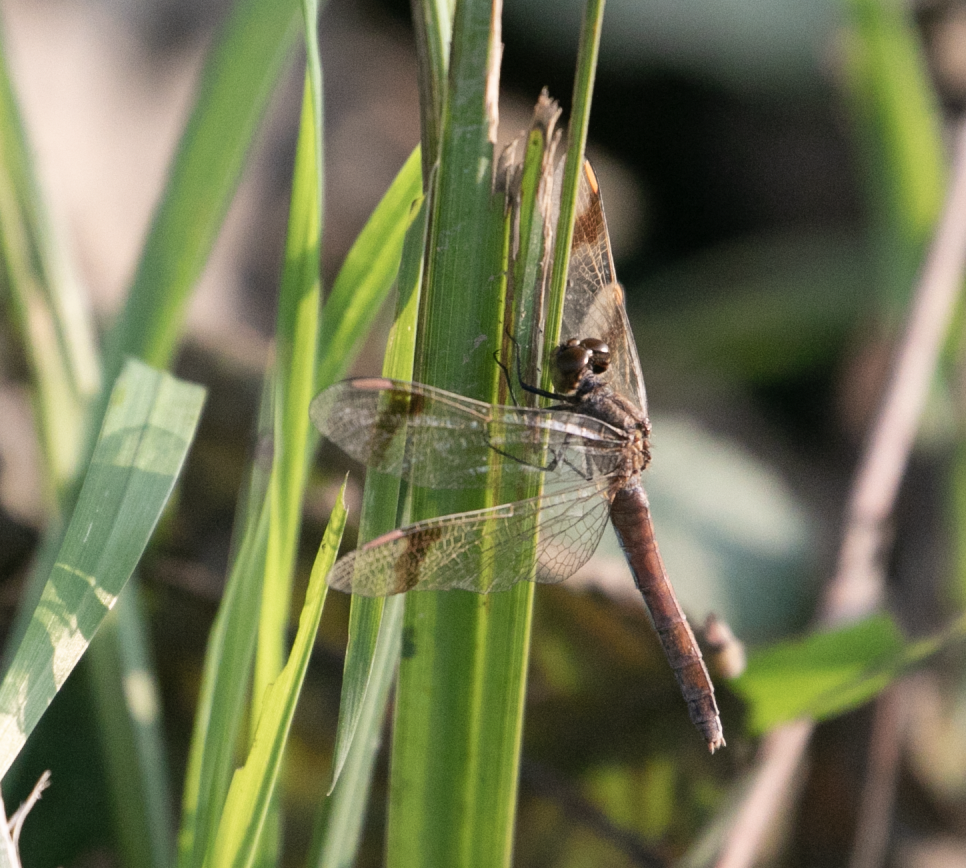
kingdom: Animalia
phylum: Arthropoda
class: Insecta
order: Odonata
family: Libellulidae
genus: Sympetrum
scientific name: Sympetrum pedemontanum
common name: Banded darter
